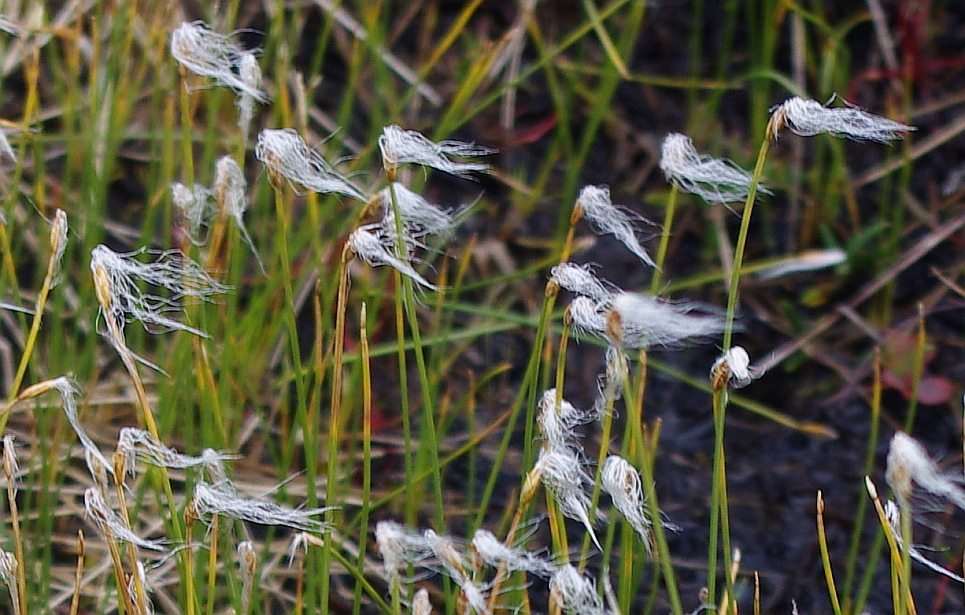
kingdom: Plantae
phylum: Tracheophyta
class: Liliopsida
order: Poales
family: Cyperaceae
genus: Trichophorum
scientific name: Trichophorum alpinum
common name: Alpine bulrush
